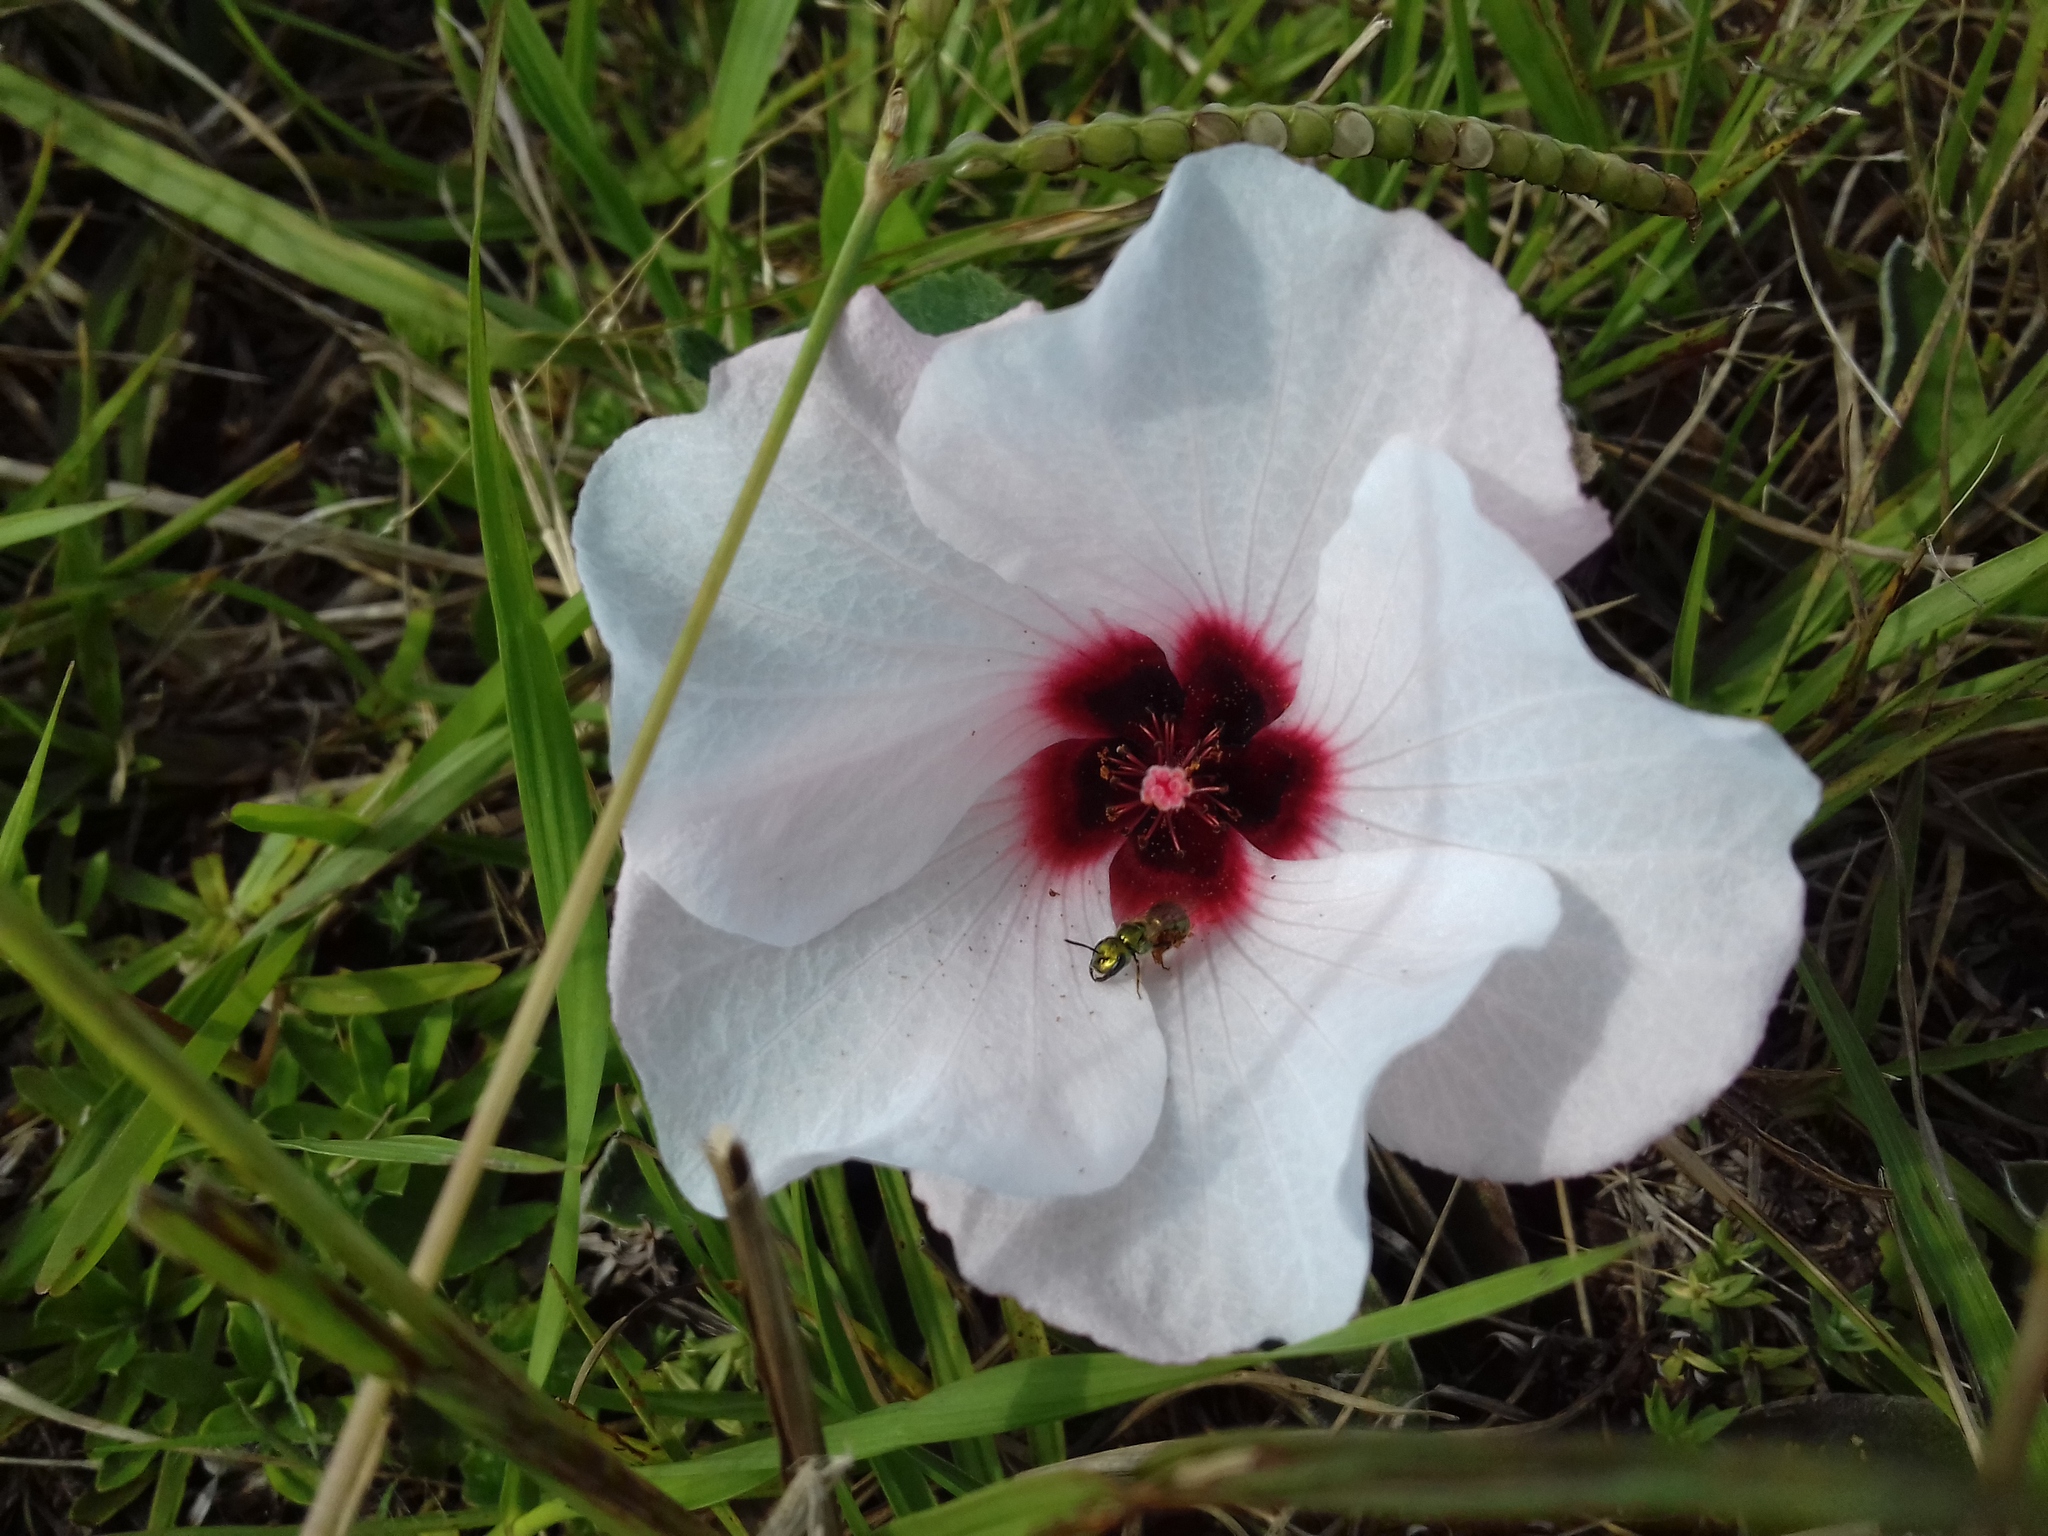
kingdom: Plantae
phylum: Tracheophyta
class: Magnoliopsida
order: Malvales
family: Malvaceae
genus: Pavonia
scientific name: Pavonia hastata
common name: Spearleaf swampmallow
